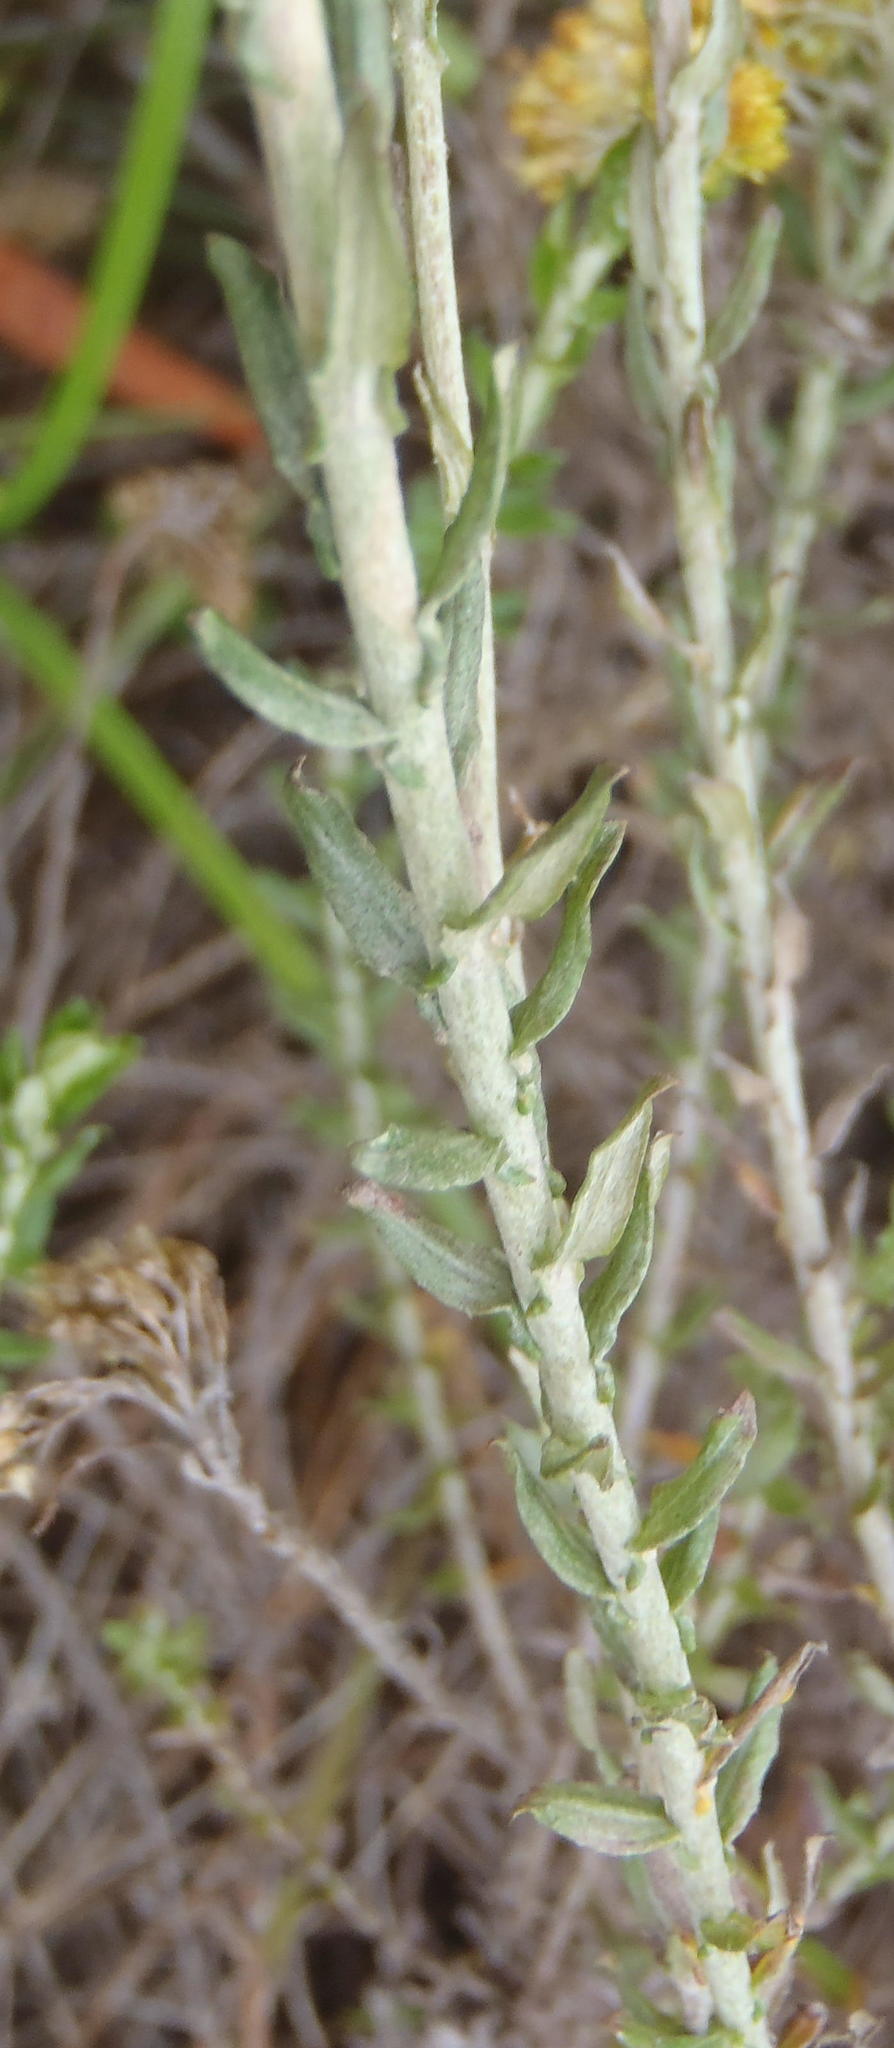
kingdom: Plantae
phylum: Tracheophyta
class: Magnoliopsida
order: Asterales
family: Asteraceae
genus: Helichrysum
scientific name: Helichrysum cymosum
